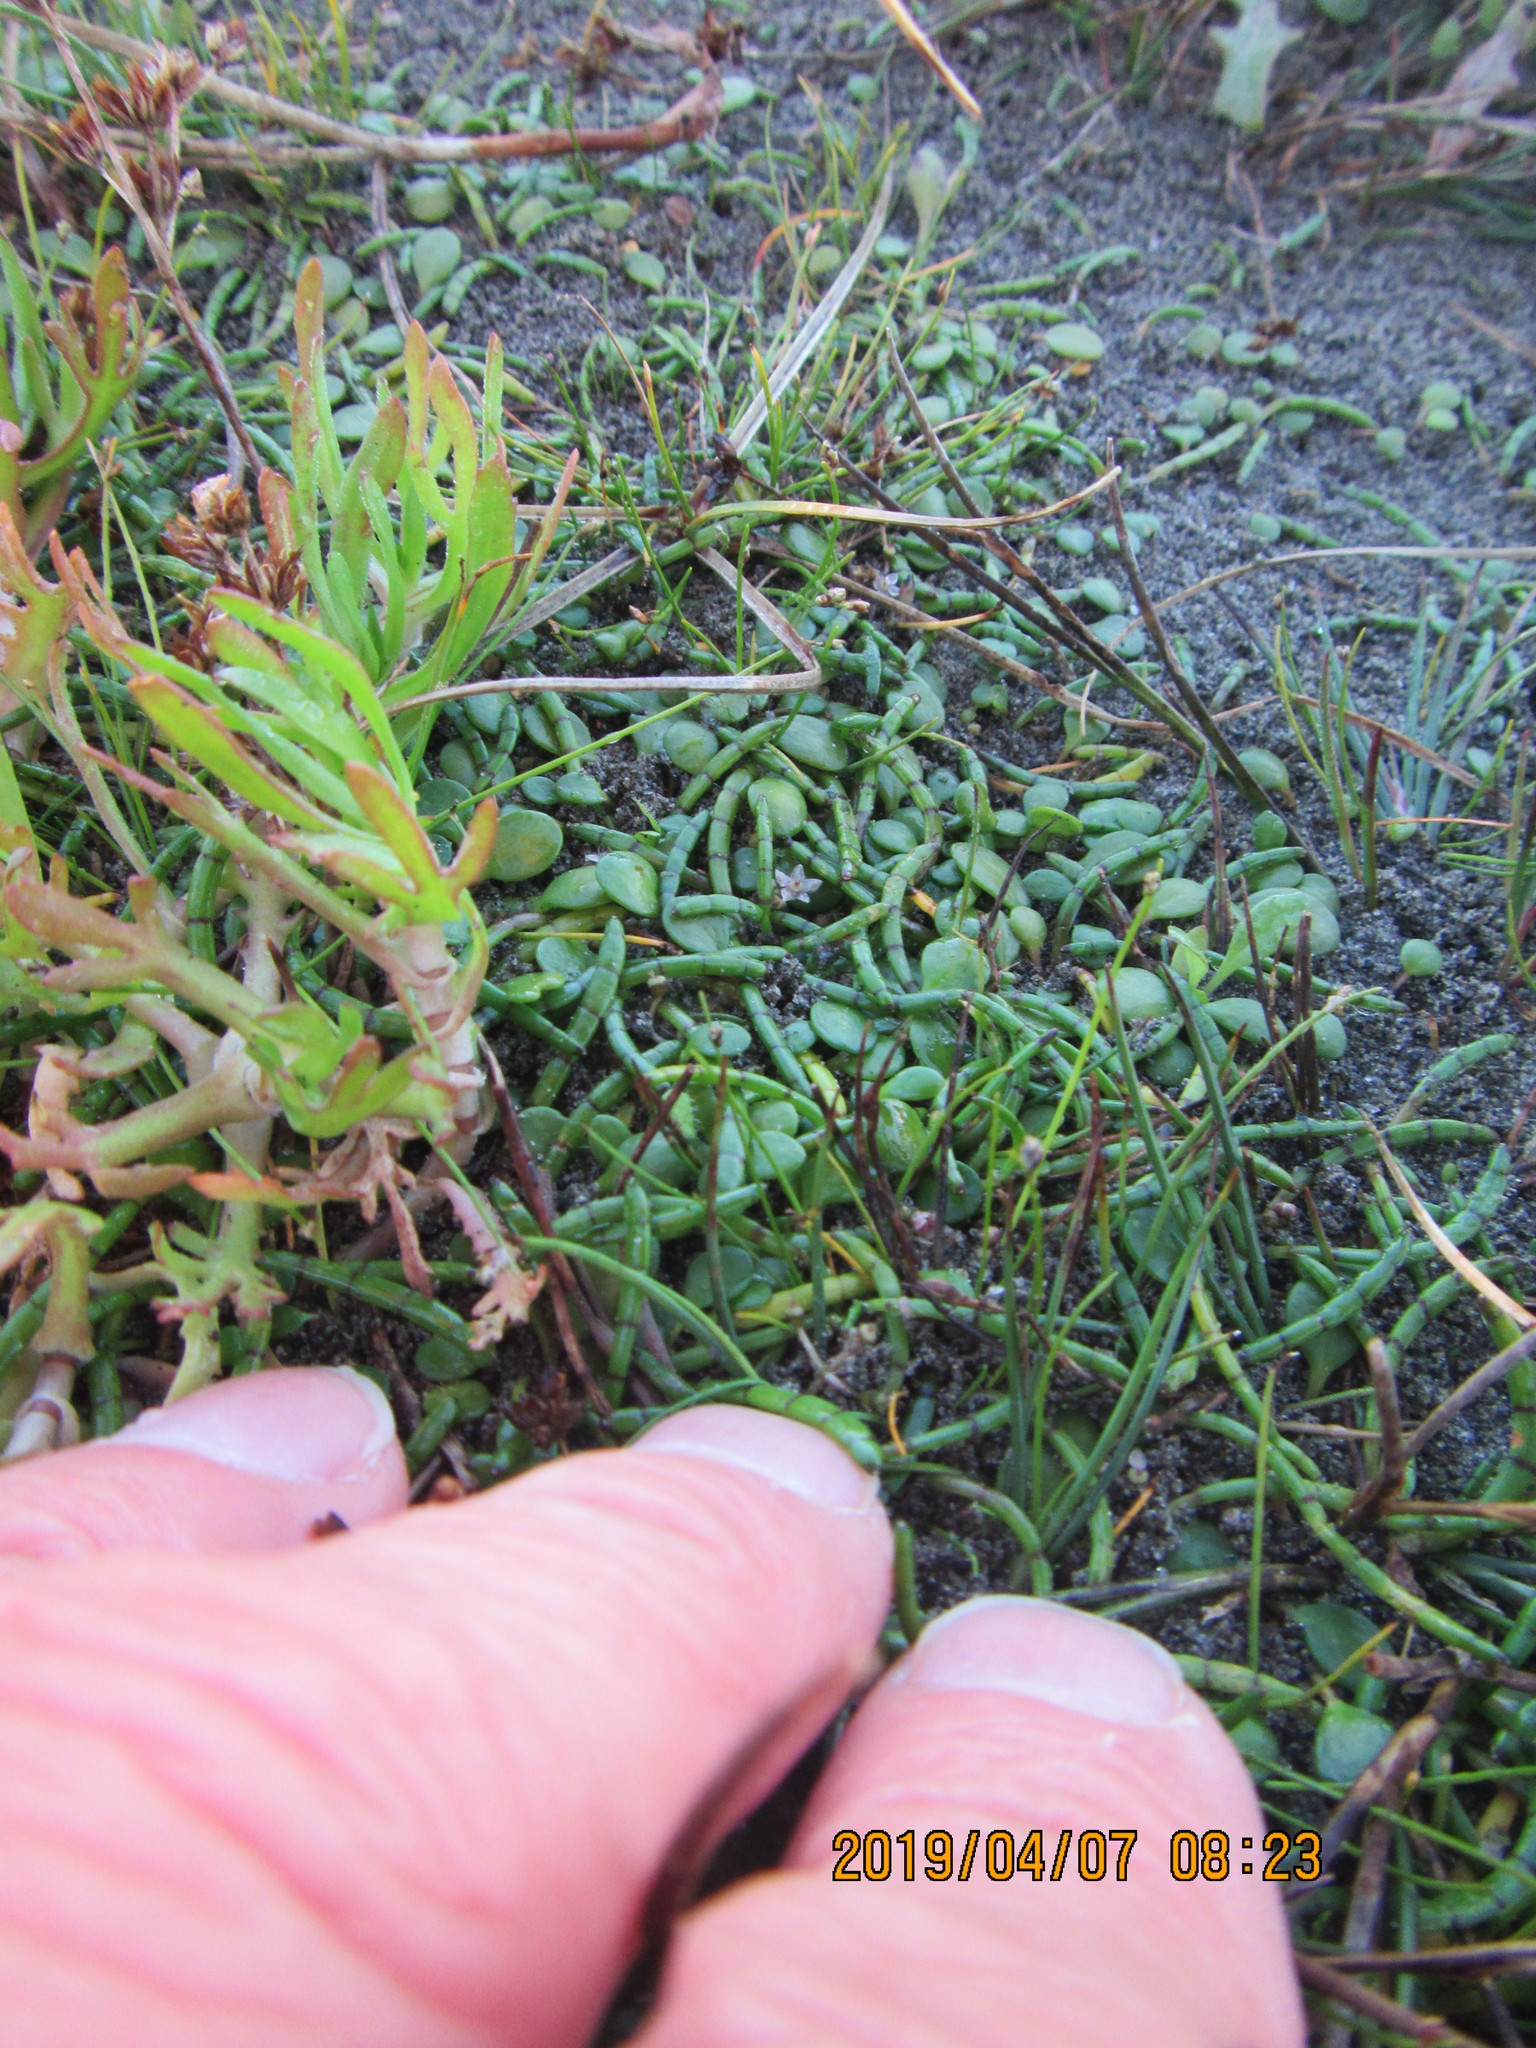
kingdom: Plantae
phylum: Tracheophyta
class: Magnoliopsida
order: Apiales
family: Apiaceae
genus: Lilaeopsis
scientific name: Lilaeopsis novae-zelandiae
